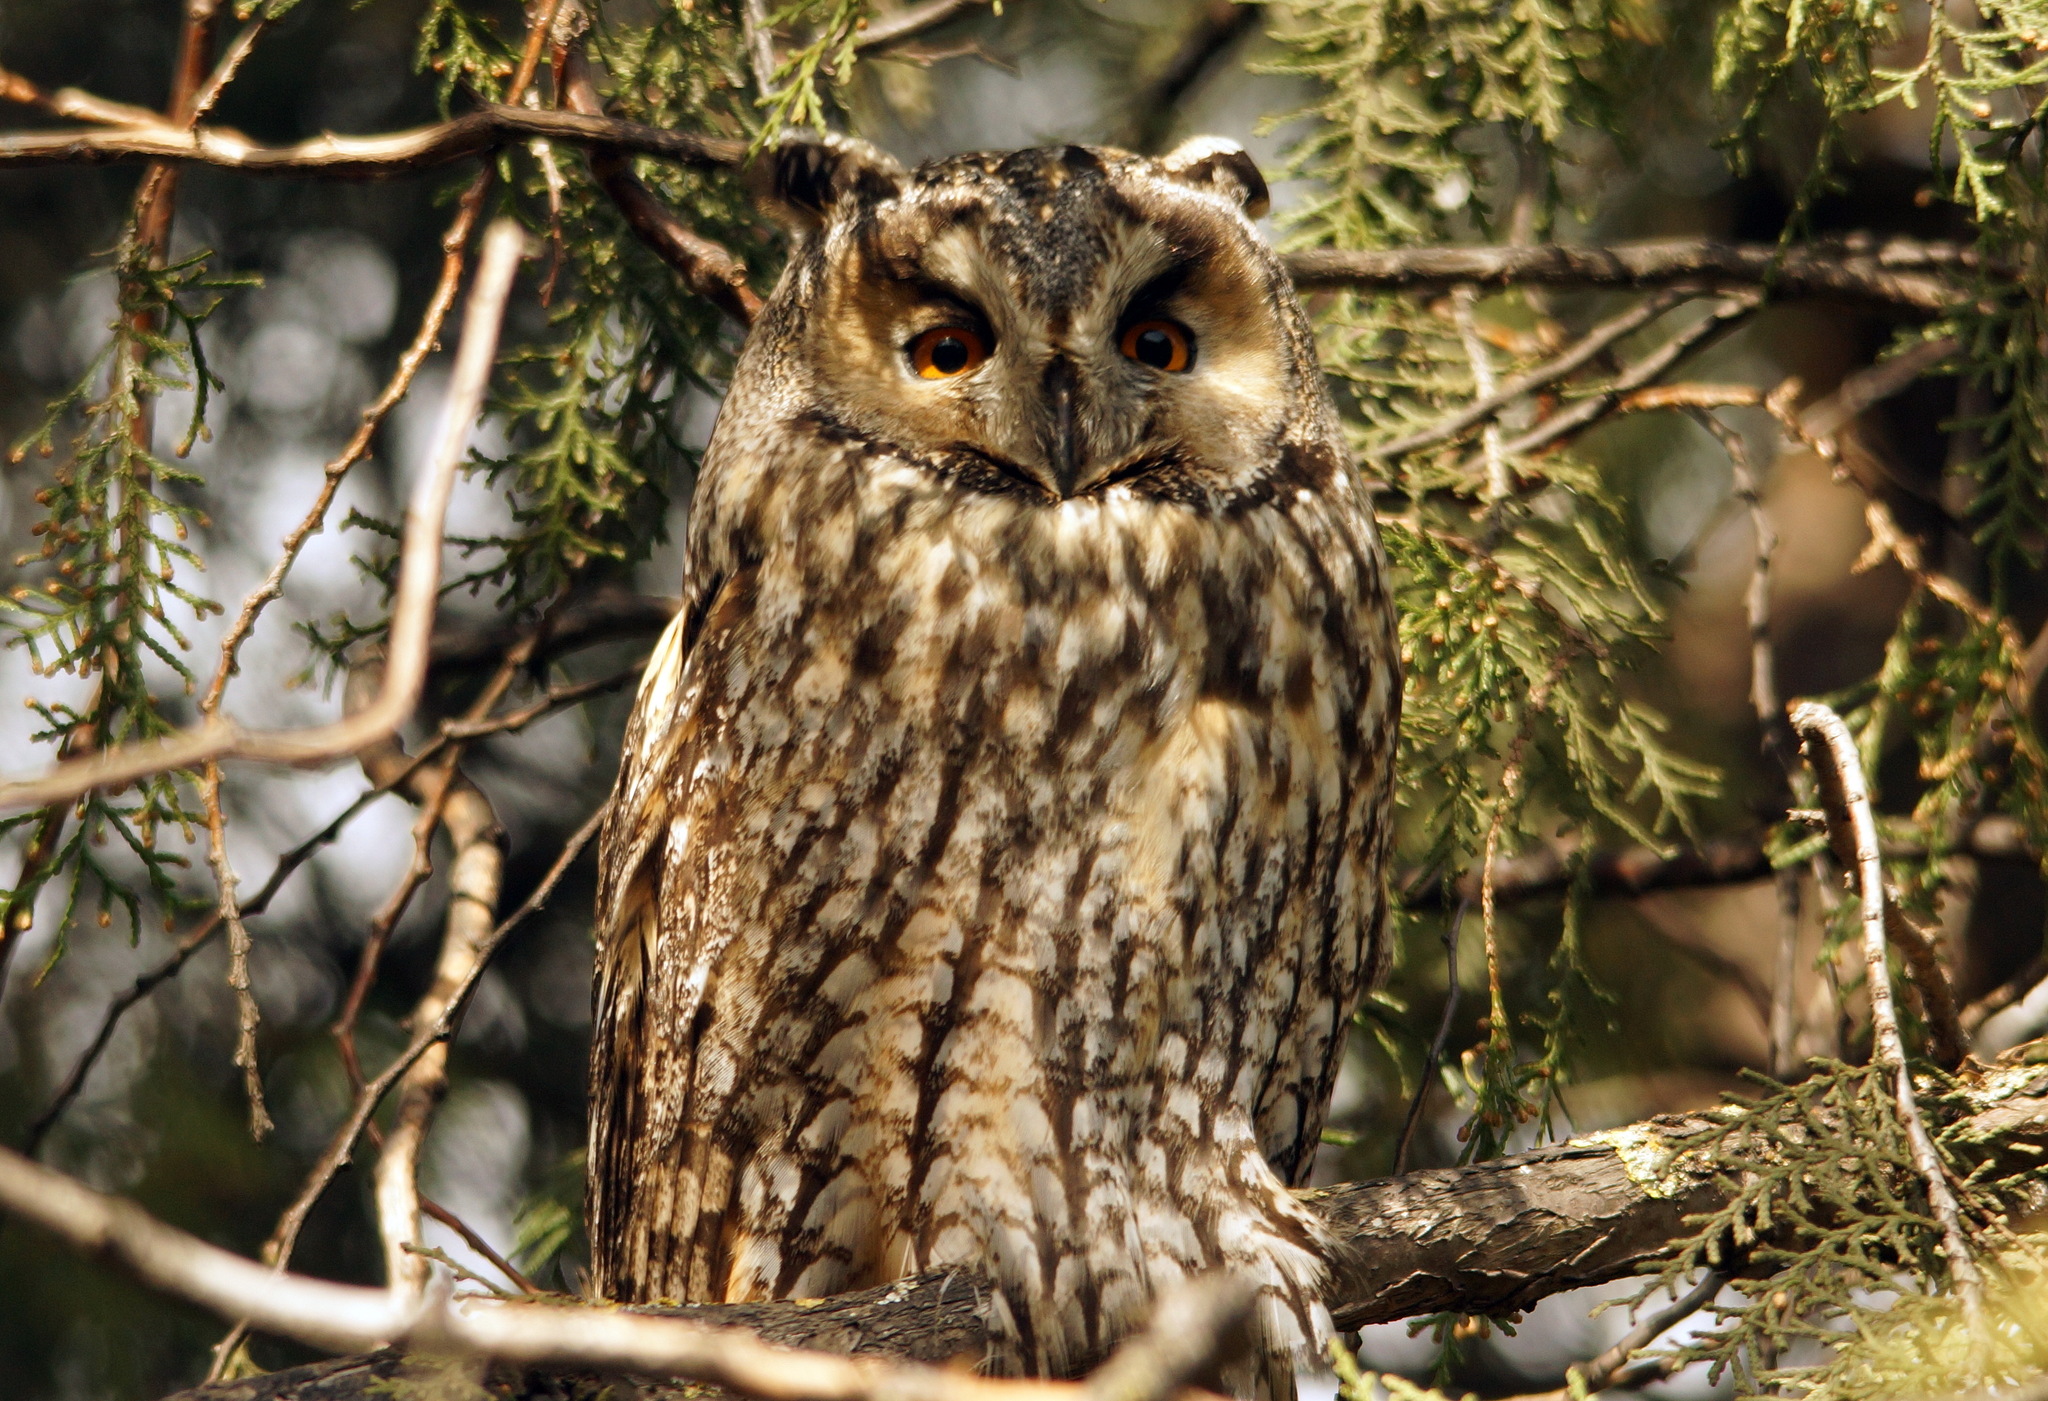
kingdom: Animalia
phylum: Chordata
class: Aves
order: Strigiformes
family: Strigidae
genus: Asio
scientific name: Asio otus
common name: Long-eared owl
